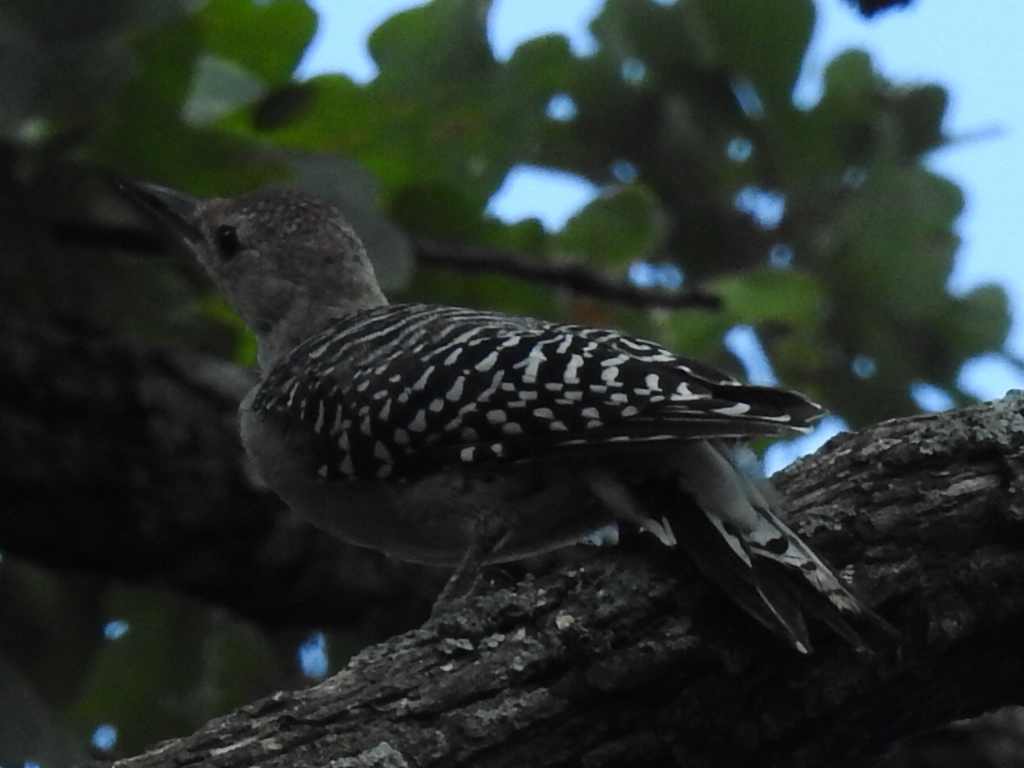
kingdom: Animalia
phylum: Chordata
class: Aves
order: Piciformes
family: Picidae
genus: Melanerpes
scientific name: Melanerpes carolinus
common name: Red-bellied woodpecker
